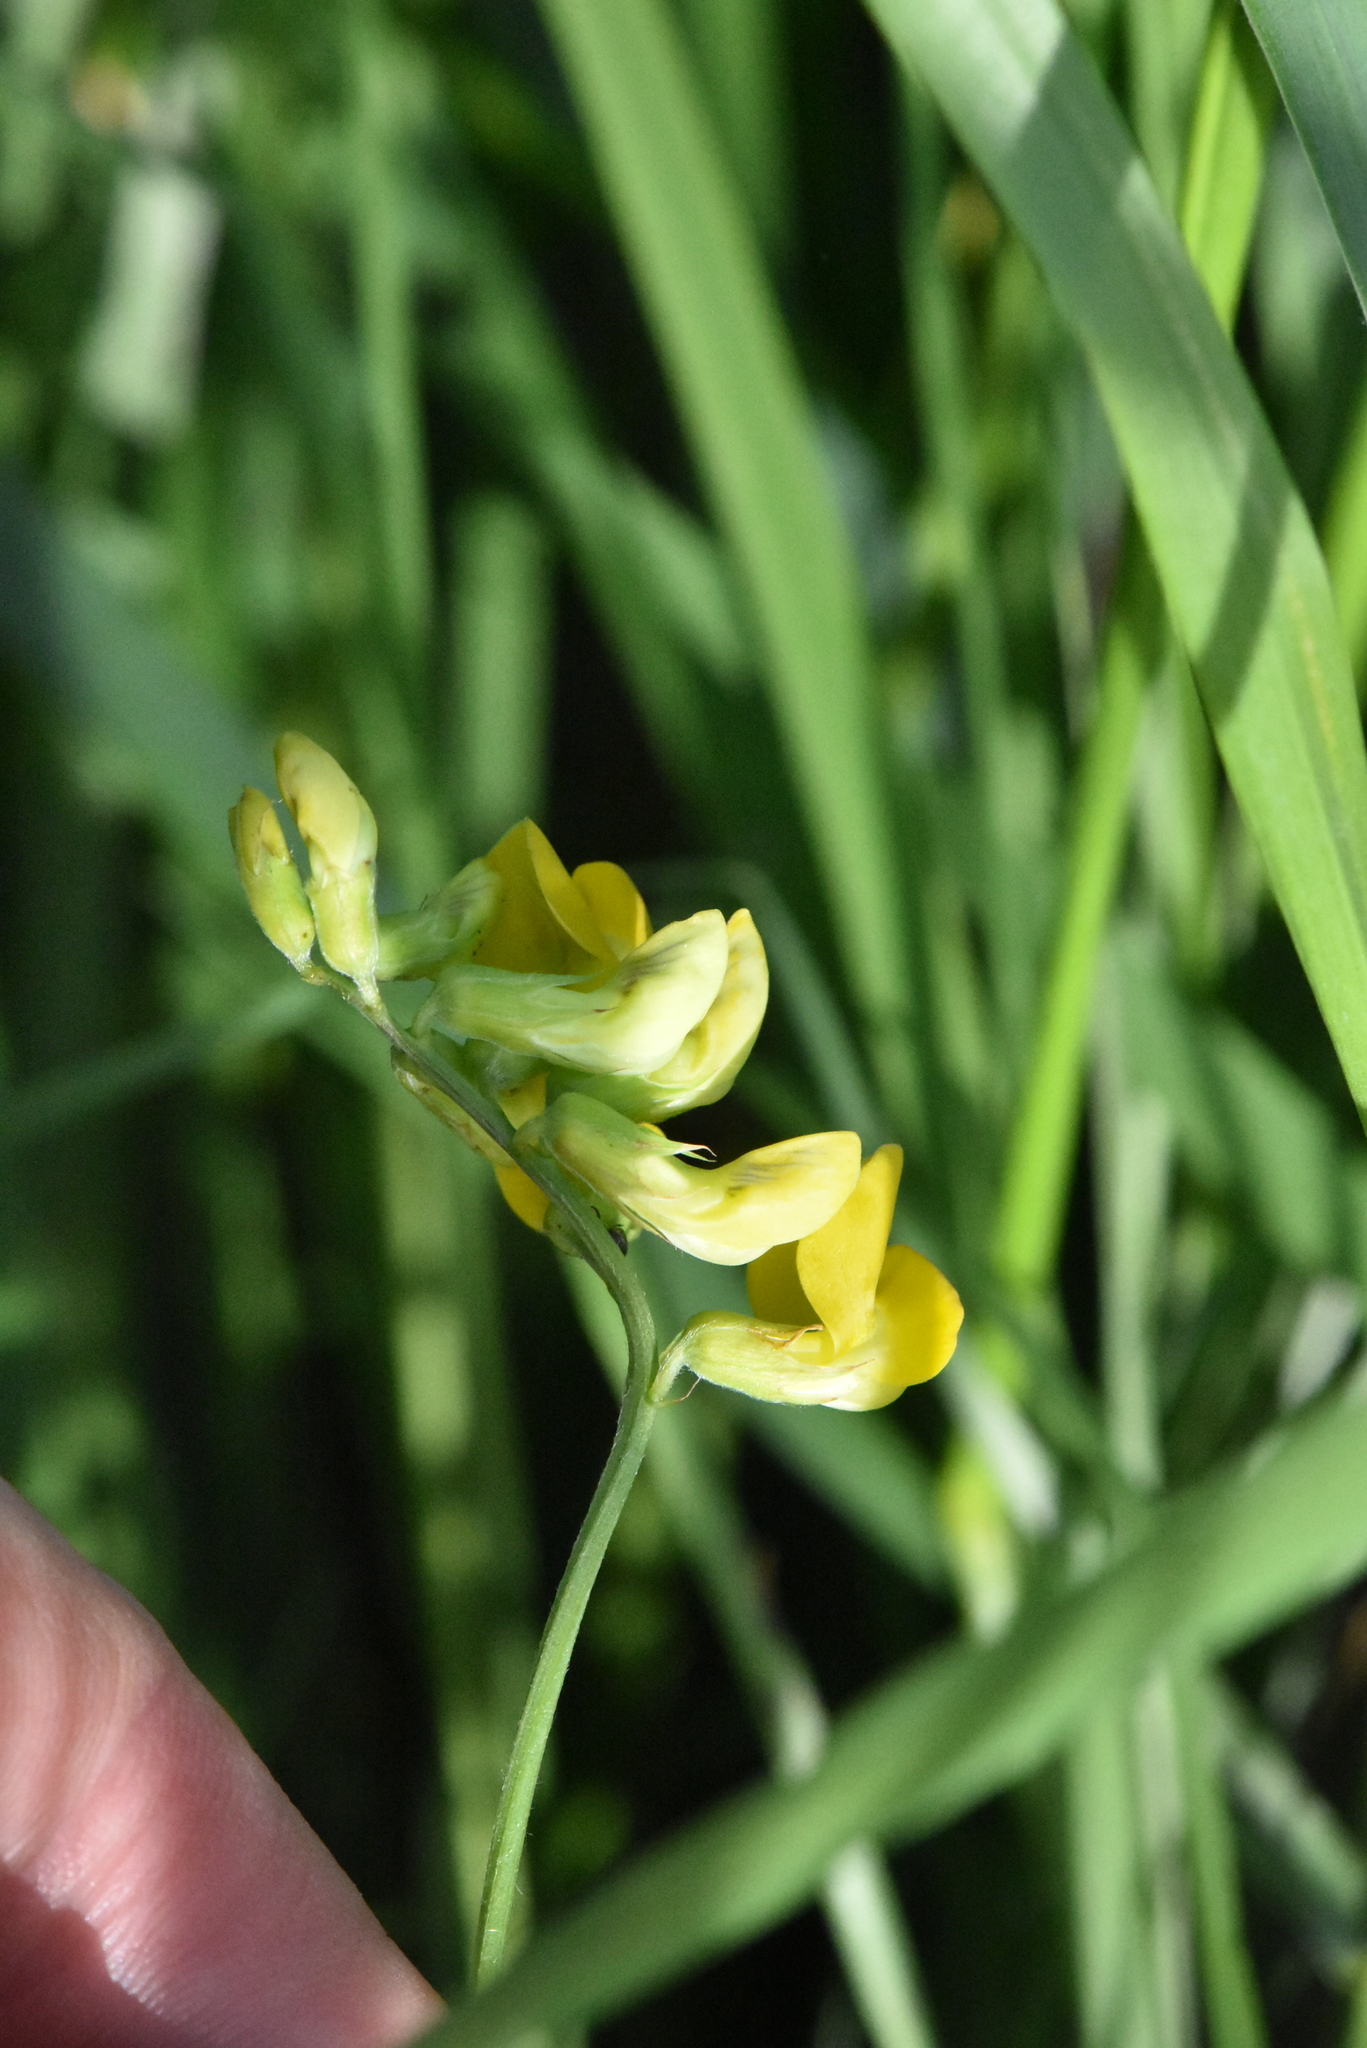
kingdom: Plantae
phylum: Tracheophyta
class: Magnoliopsida
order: Fabales
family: Fabaceae
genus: Lathyrus
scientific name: Lathyrus pratensis
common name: Meadow vetchling
